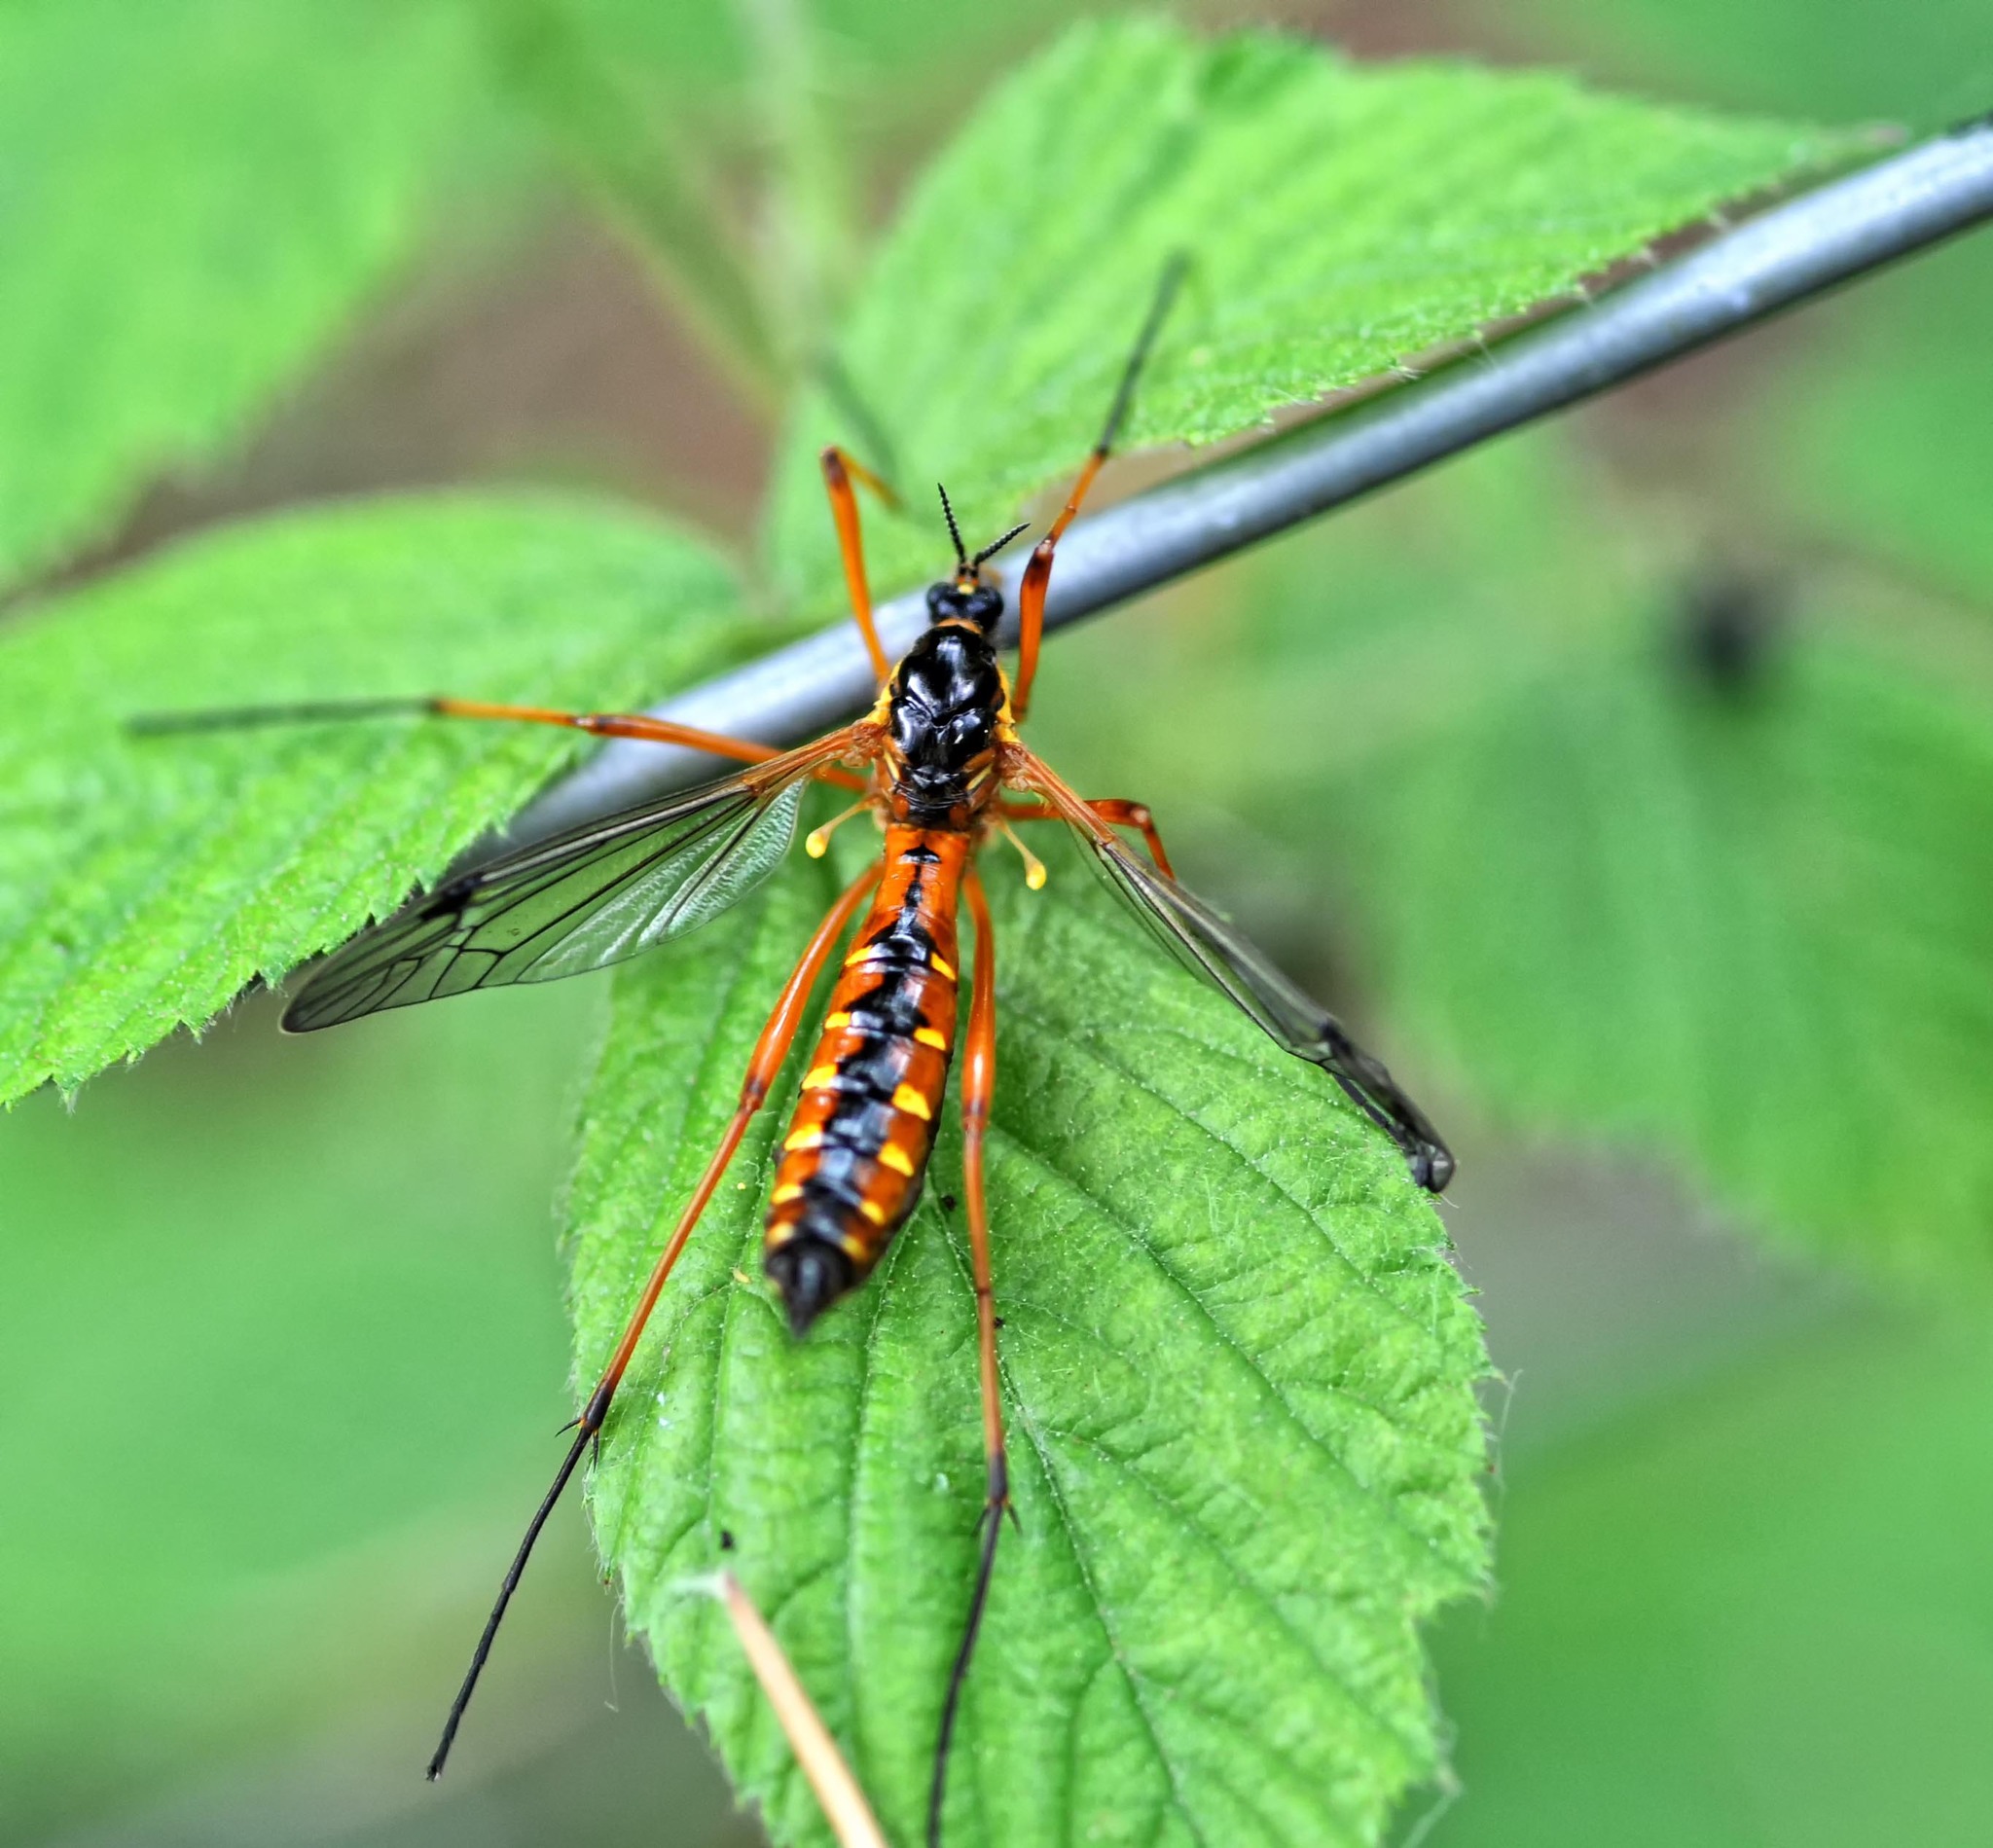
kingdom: Animalia
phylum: Arthropoda
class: Insecta
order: Diptera
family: Tipulidae
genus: Ctenophora
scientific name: Ctenophora pectinicornis
